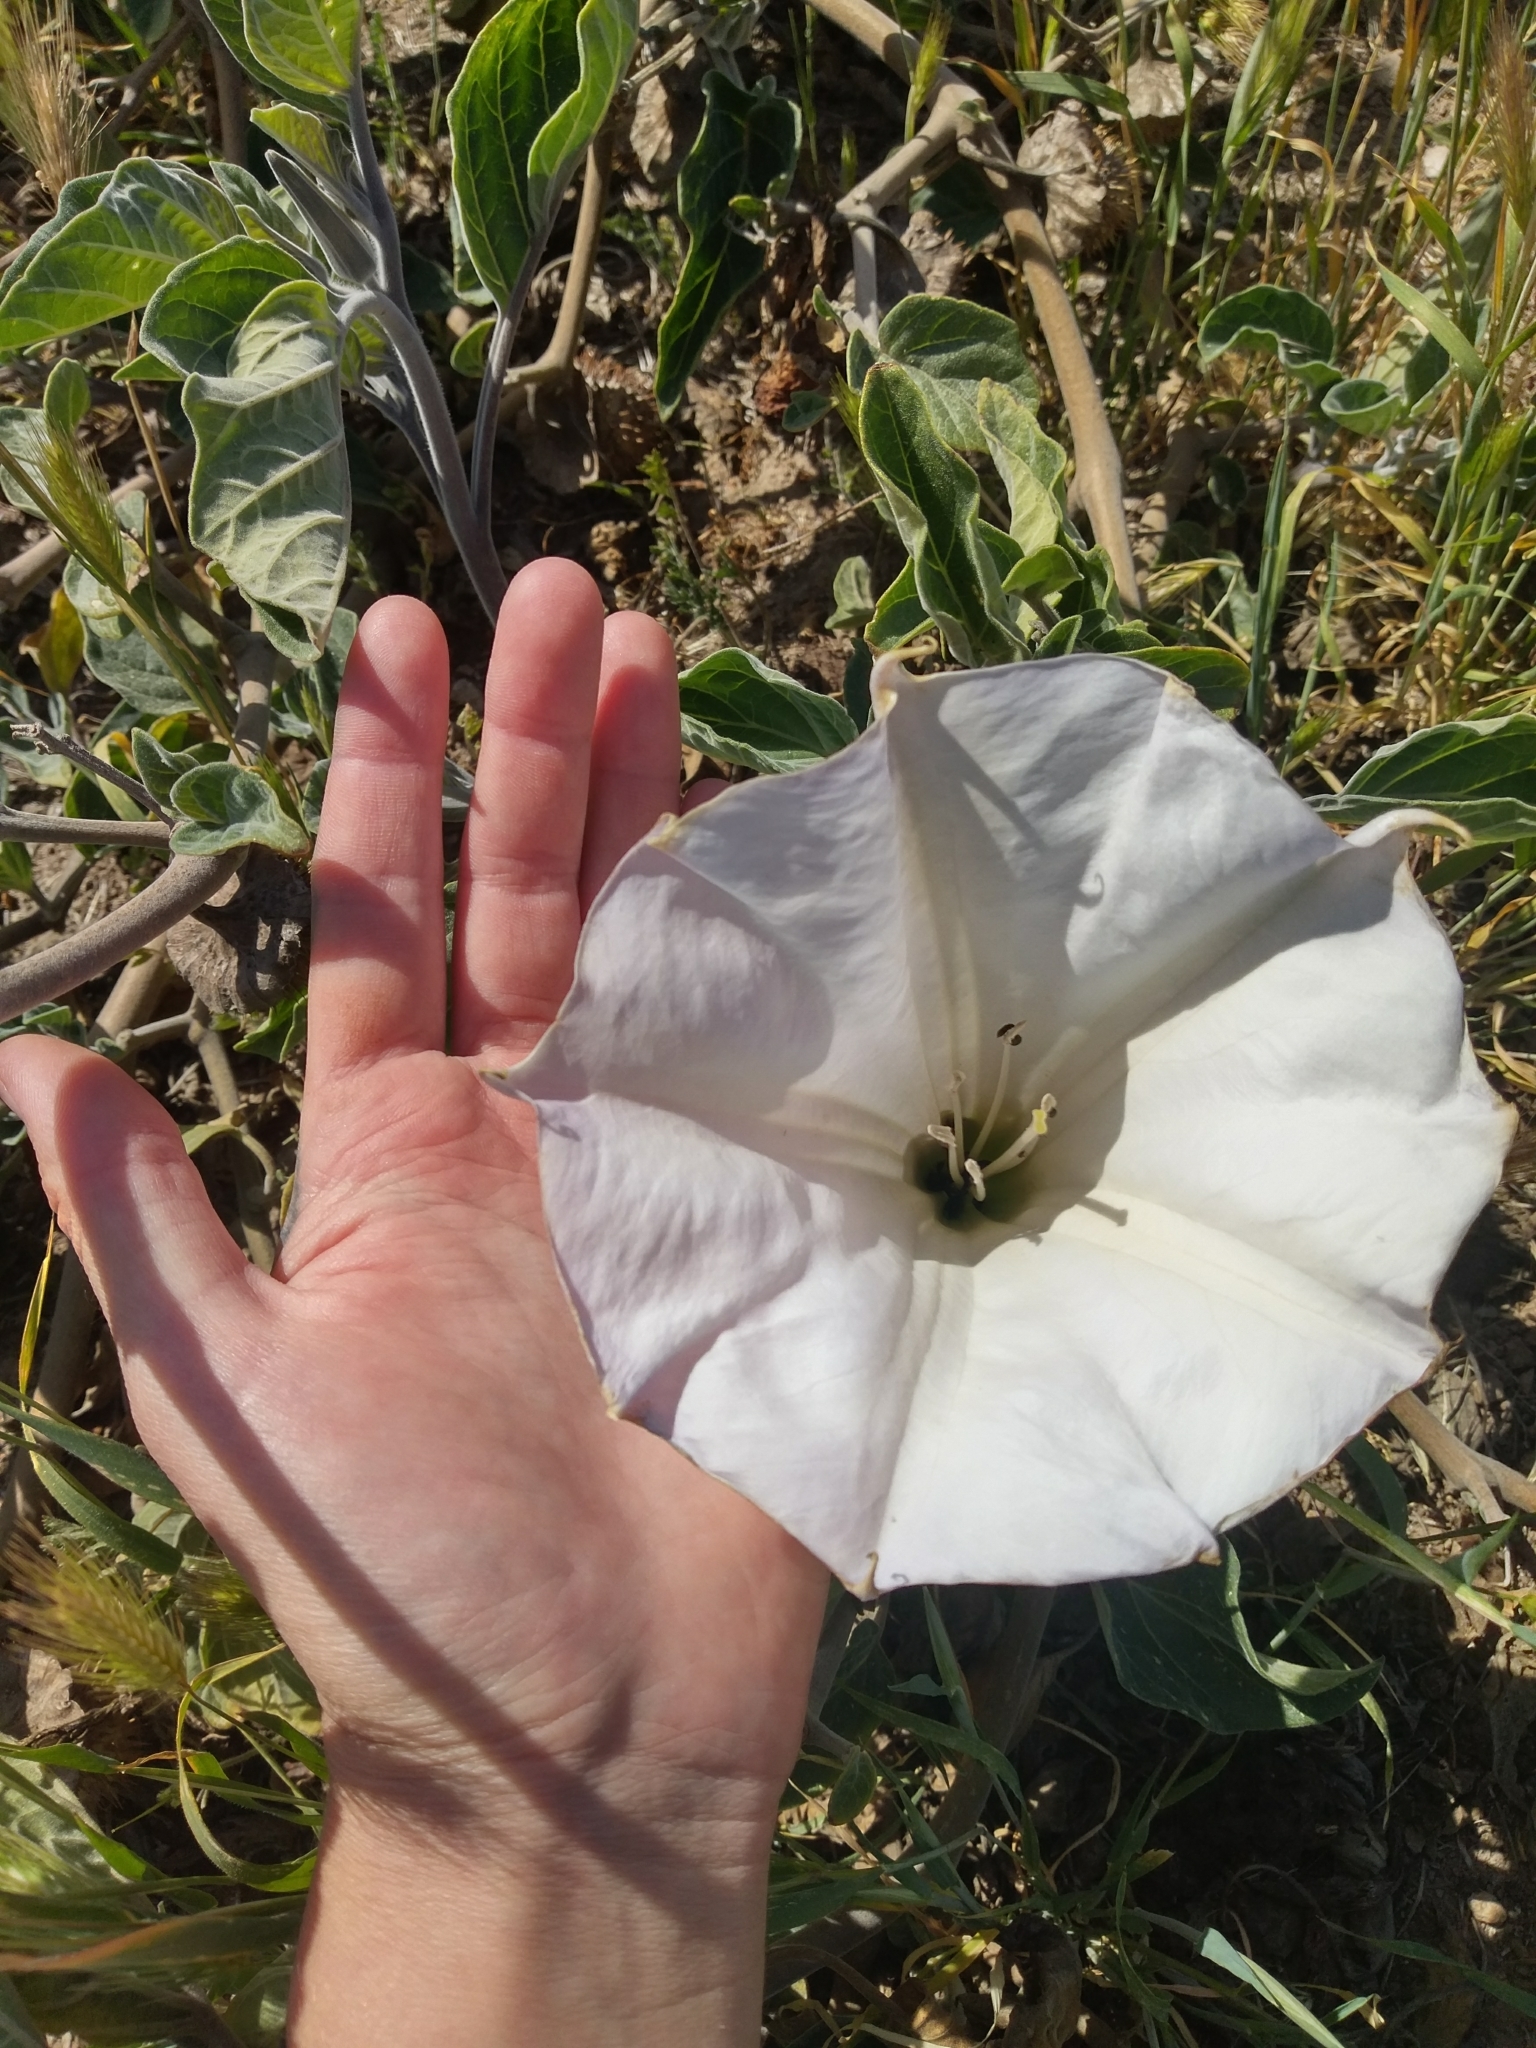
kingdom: Plantae
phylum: Tracheophyta
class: Magnoliopsida
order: Solanales
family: Solanaceae
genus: Datura
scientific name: Datura wrightii
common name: Sacred thorn-apple
